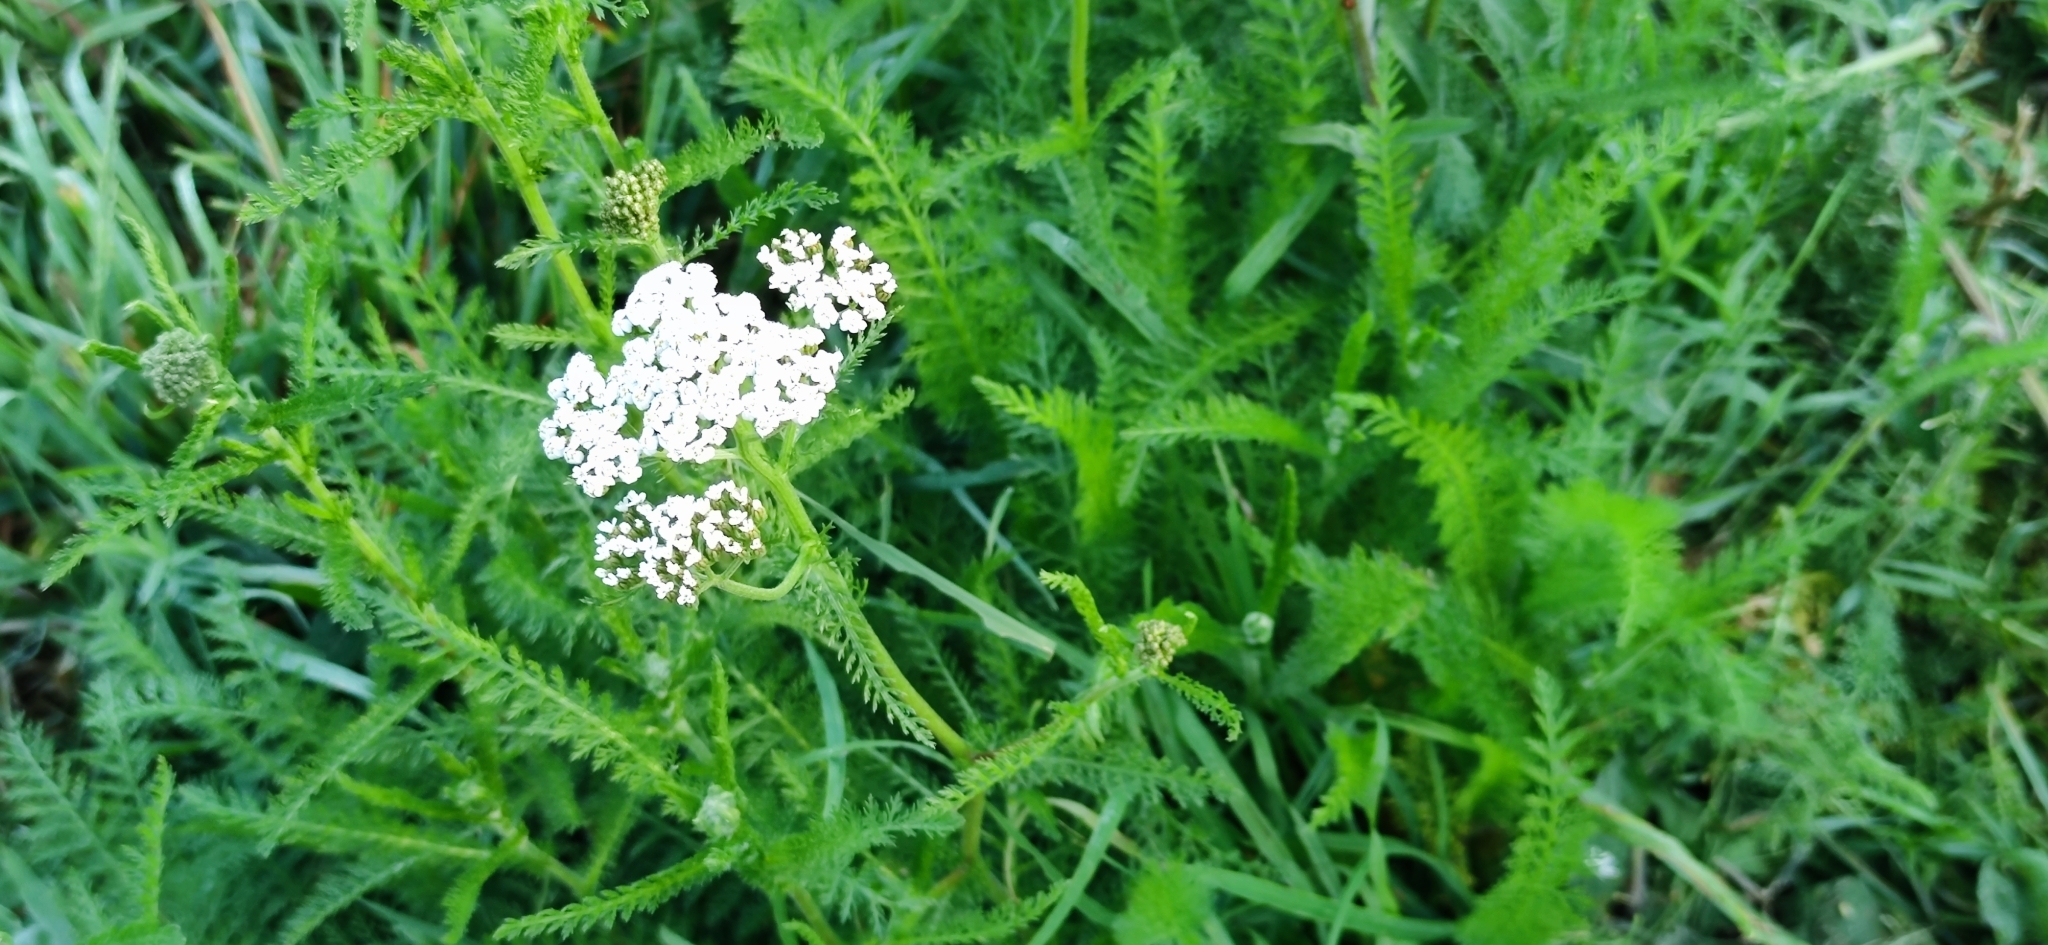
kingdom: Plantae
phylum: Tracheophyta
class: Magnoliopsida
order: Asterales
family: Asteraceae
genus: Achillea
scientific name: Achillea millefolium
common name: Yarrow
